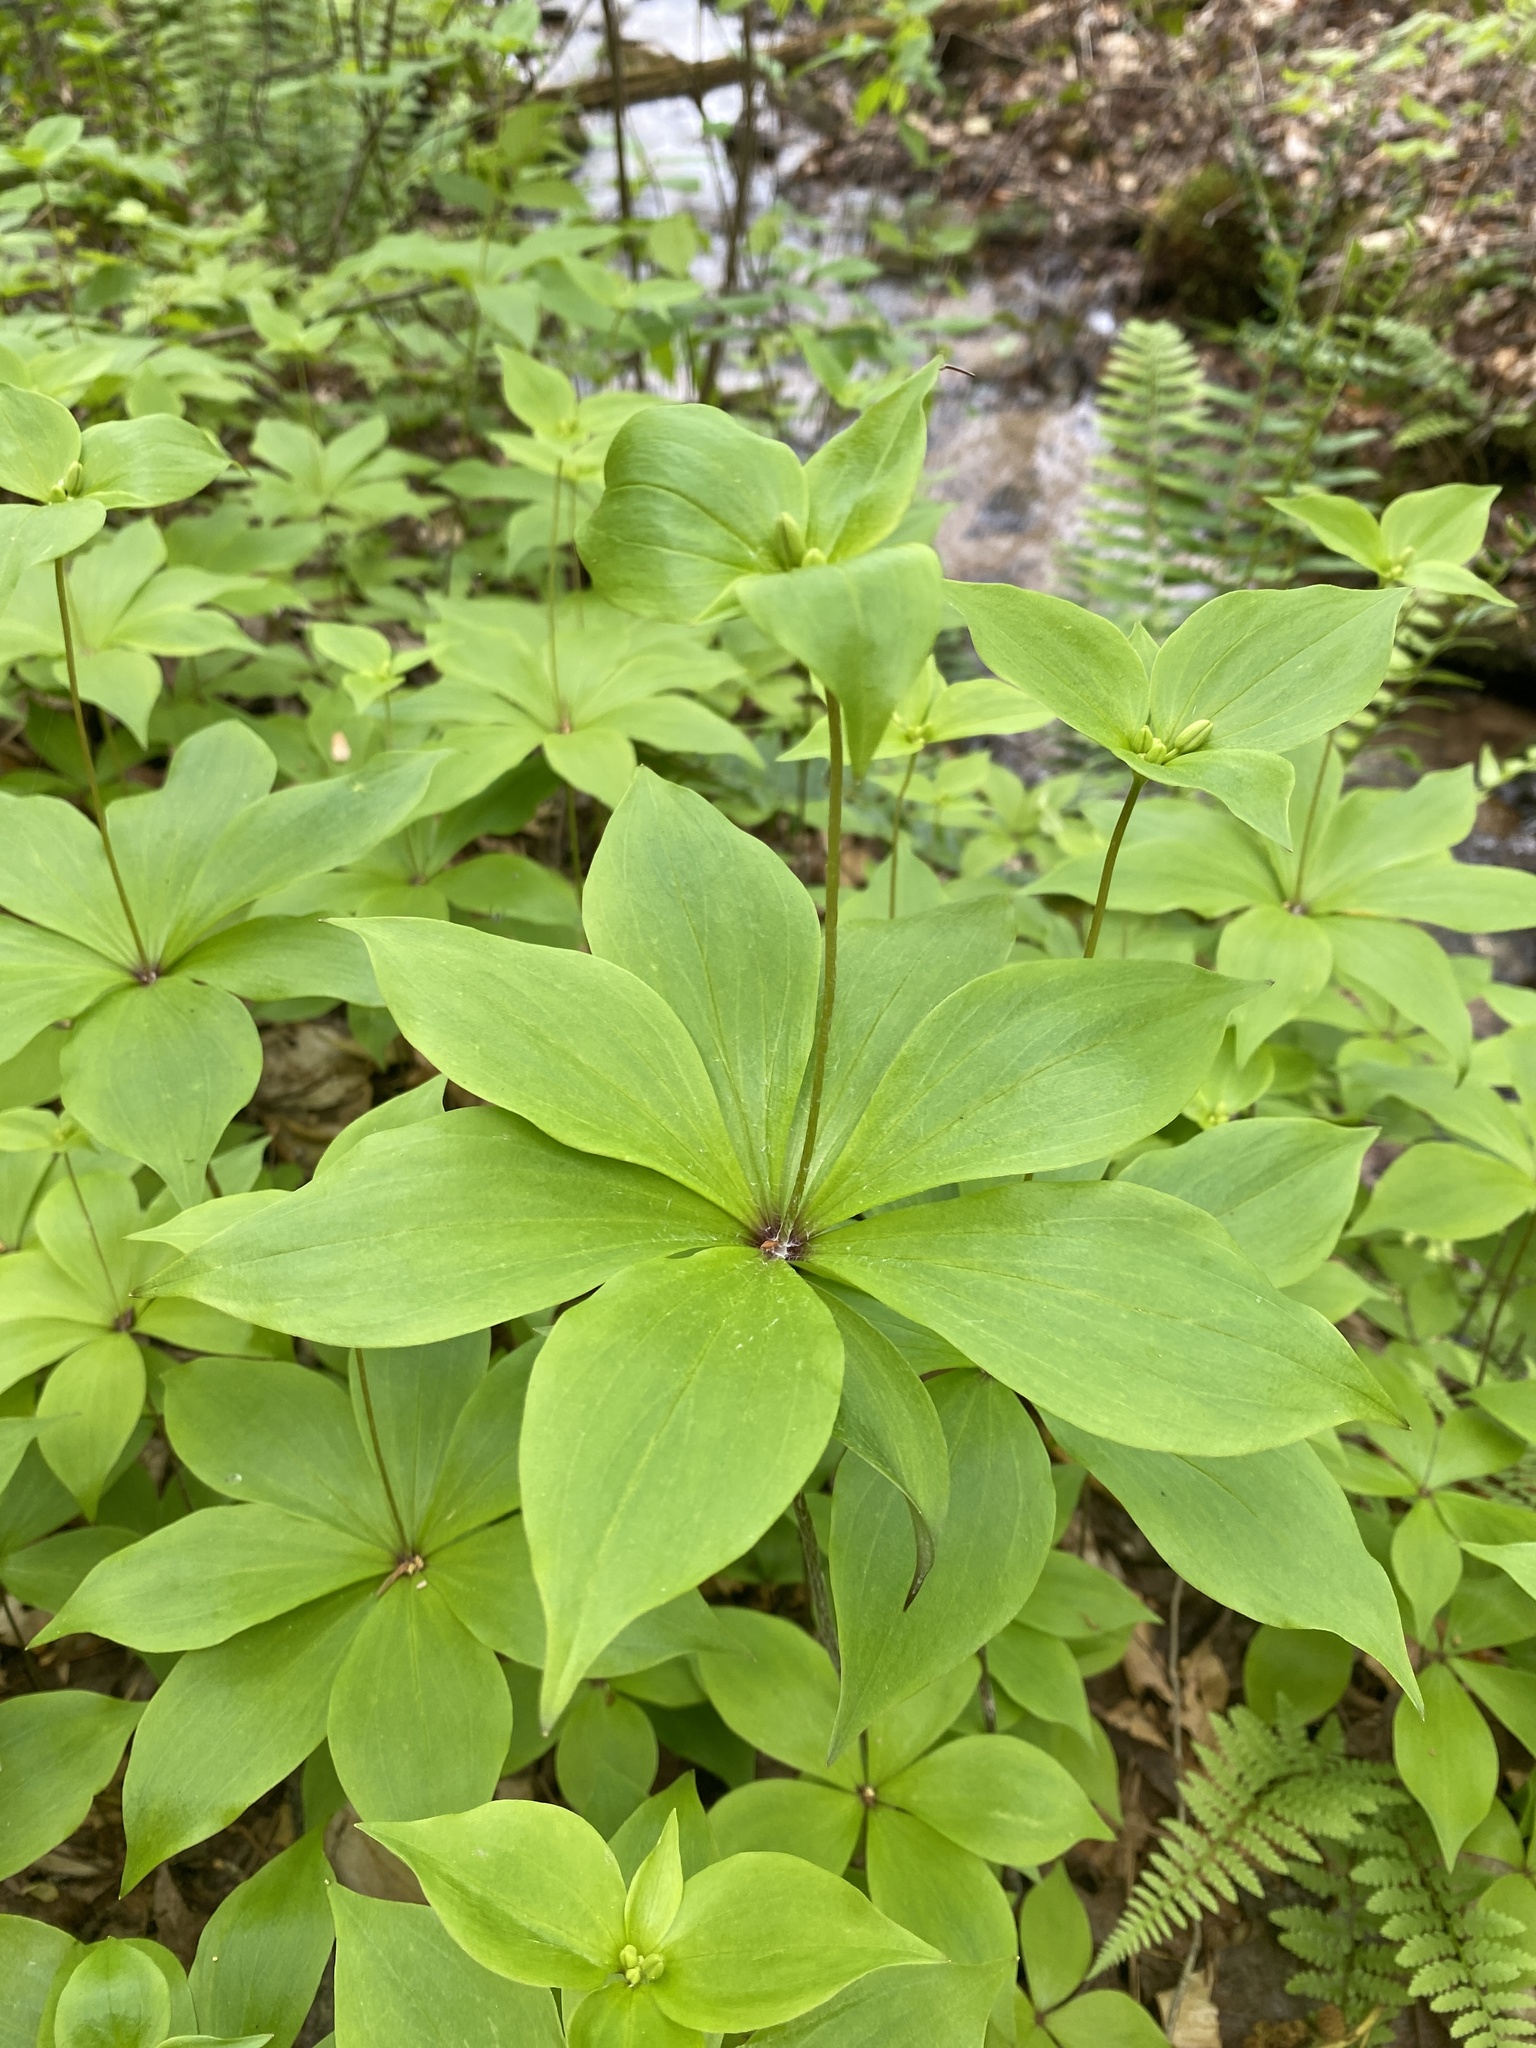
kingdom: Plantae
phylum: Tracheophyta
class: Liliopsida
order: Liliales
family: Liliaceae
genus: Medeola
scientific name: Medeola virginiana
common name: Indian cucumber-root
